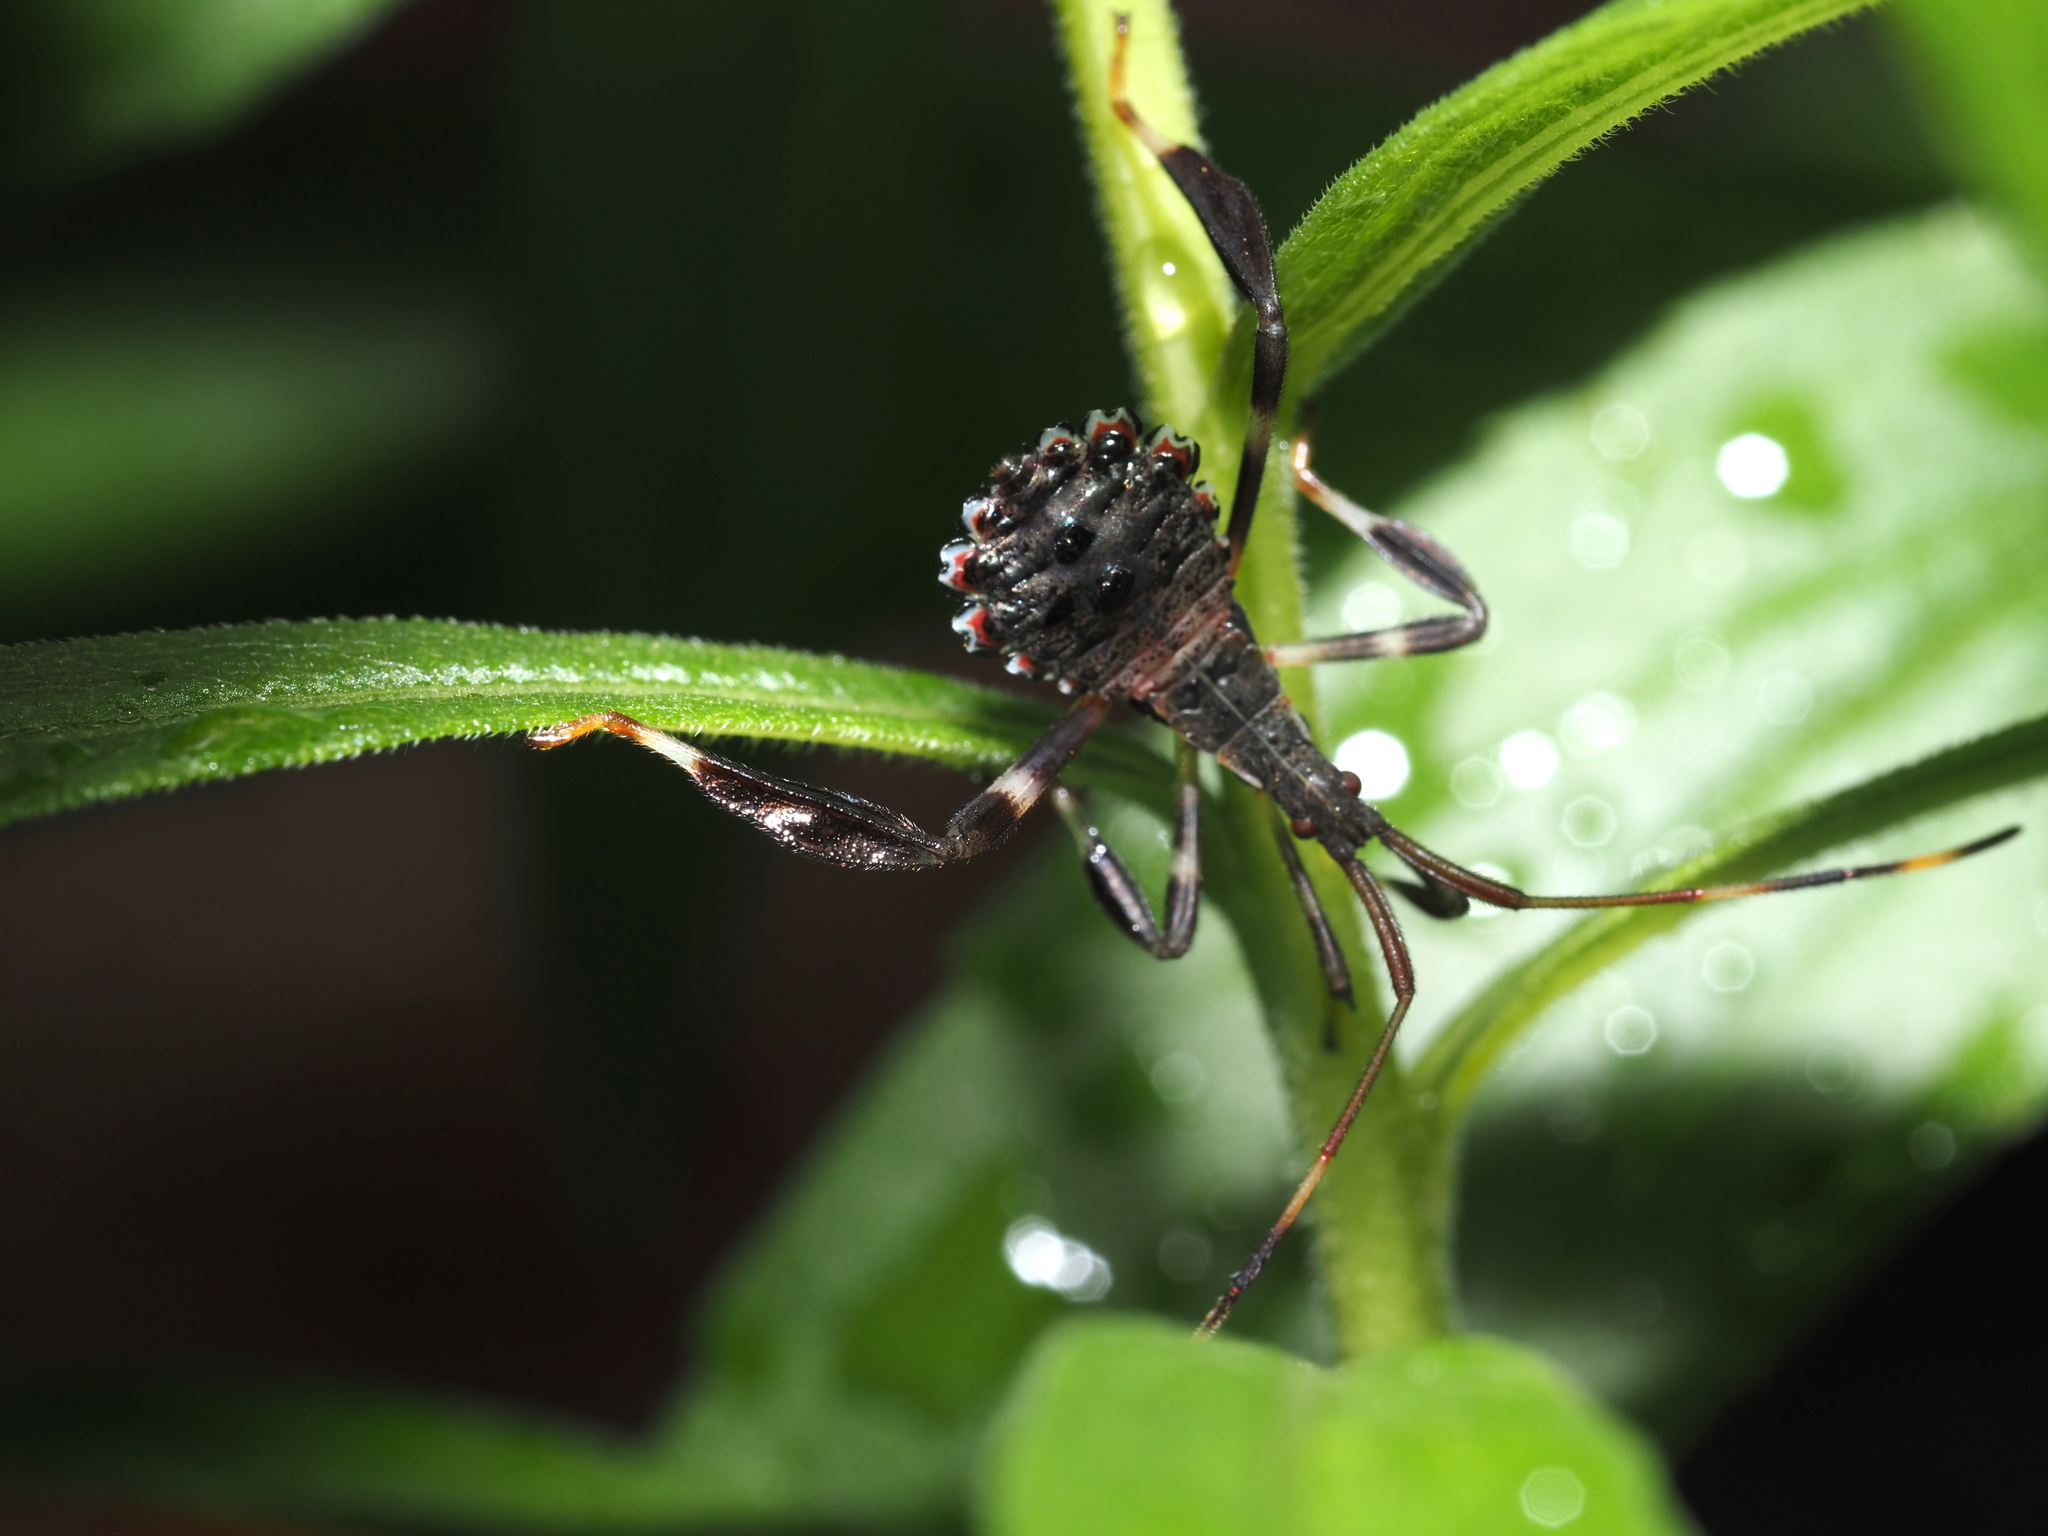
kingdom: Animalia
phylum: Arthropoda
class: Insecta
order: Hemiptera
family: Coreidae
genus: Acanthocephala
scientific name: Acanthocephala terminalis
